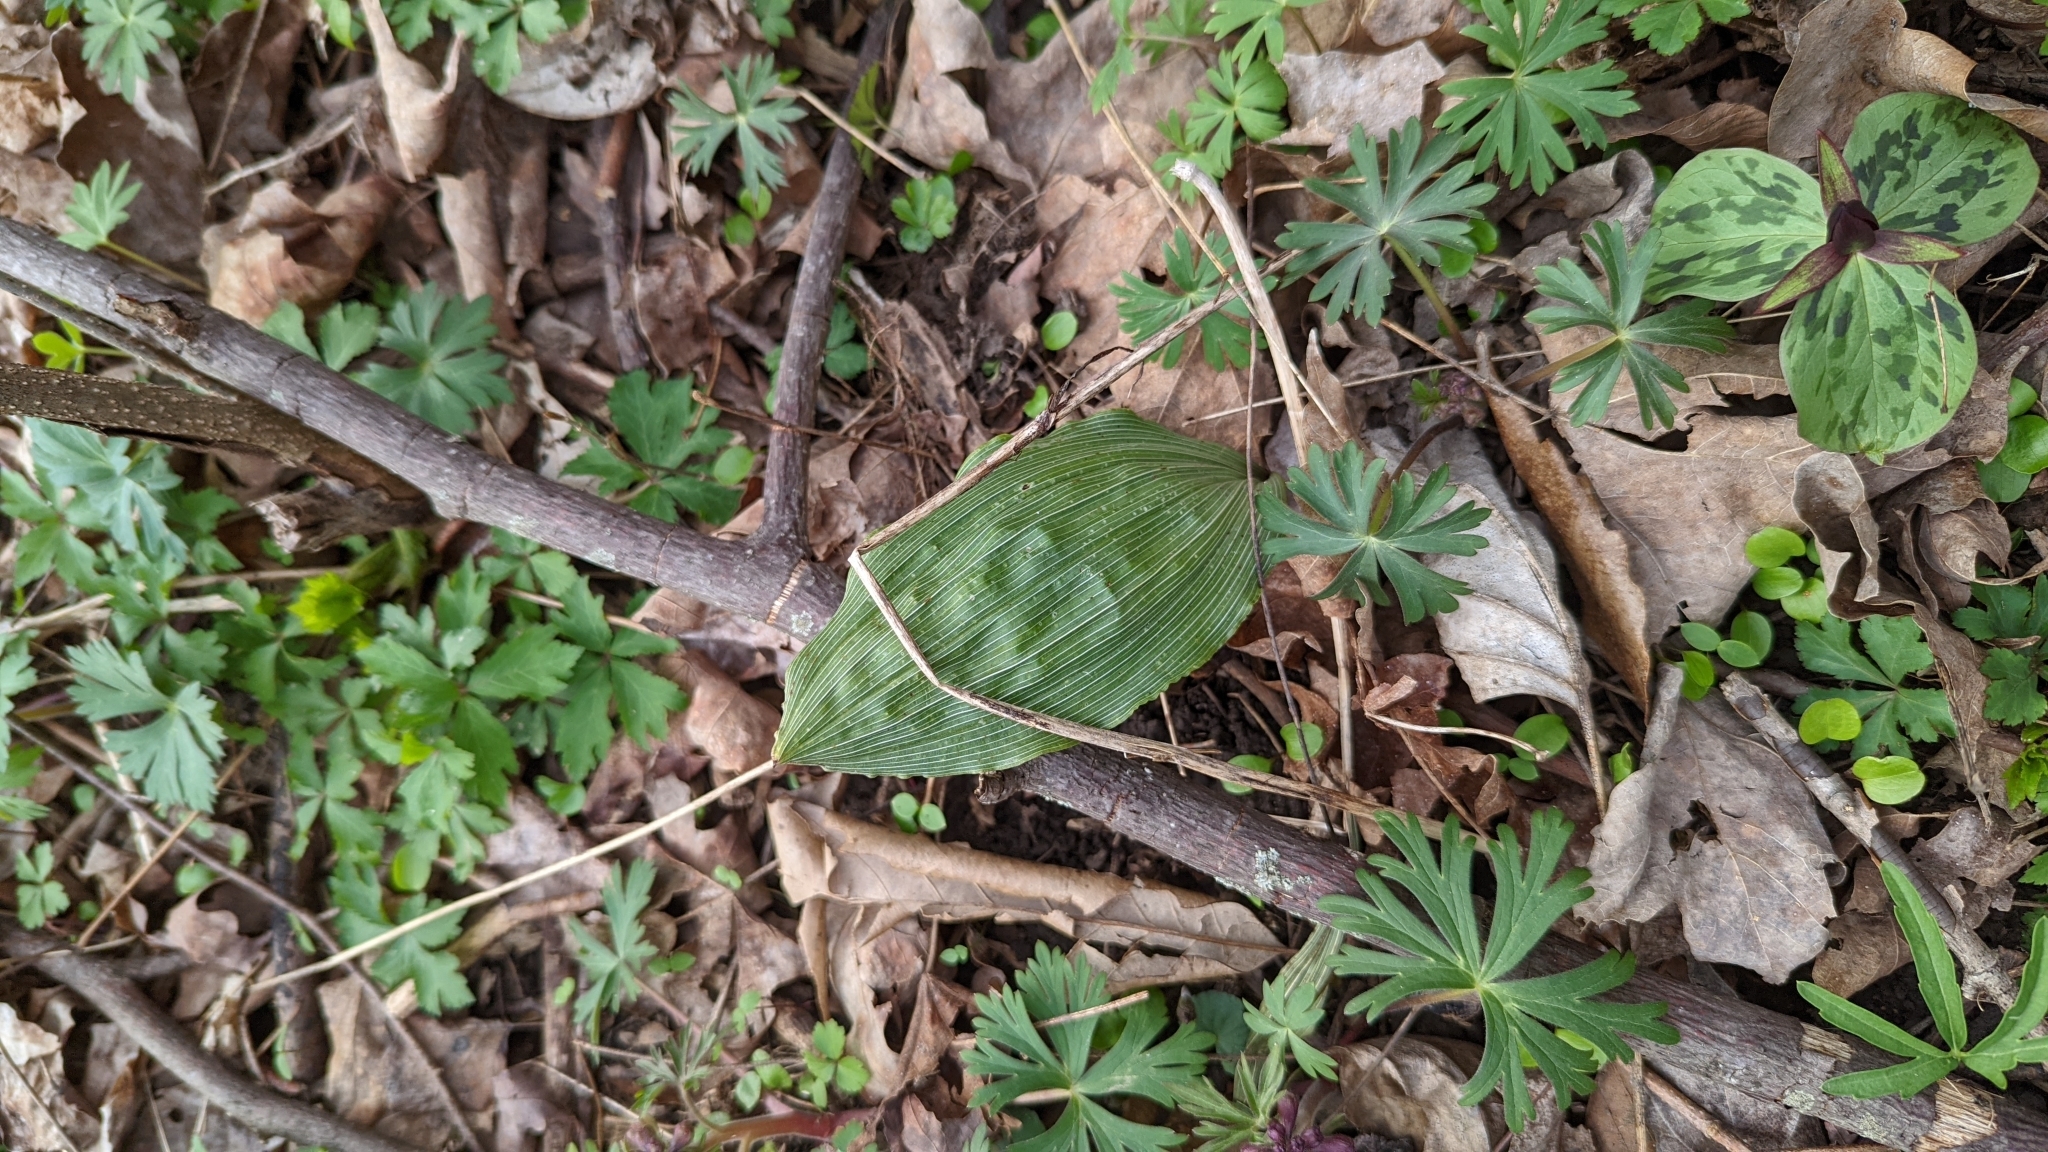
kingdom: Plantae
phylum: Tracheophyta
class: Liliopsida
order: Asparagales
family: Orchidaceae
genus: Aplectrum
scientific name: Aplectrum hyemale
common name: Adam-and-eve
